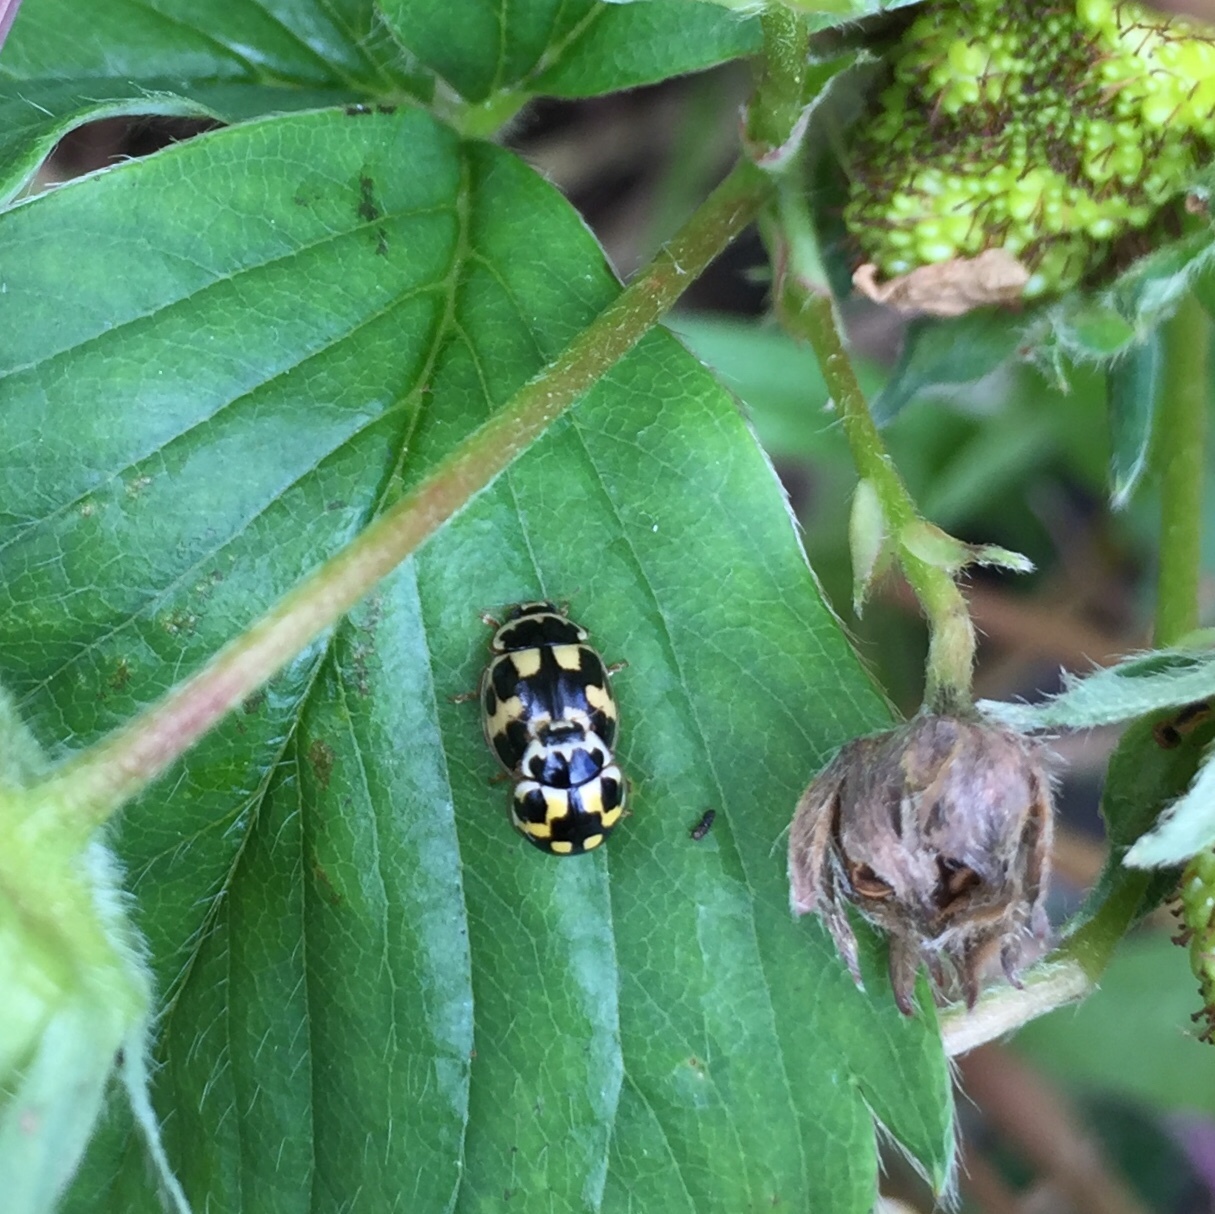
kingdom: Animalia
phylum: Arthropoda
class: Insecta
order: Coleoptera
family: Coccinellidae
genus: Propylaea
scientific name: Propylaea quatuordecimpunctata
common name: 14-spotted ladybird beetle
